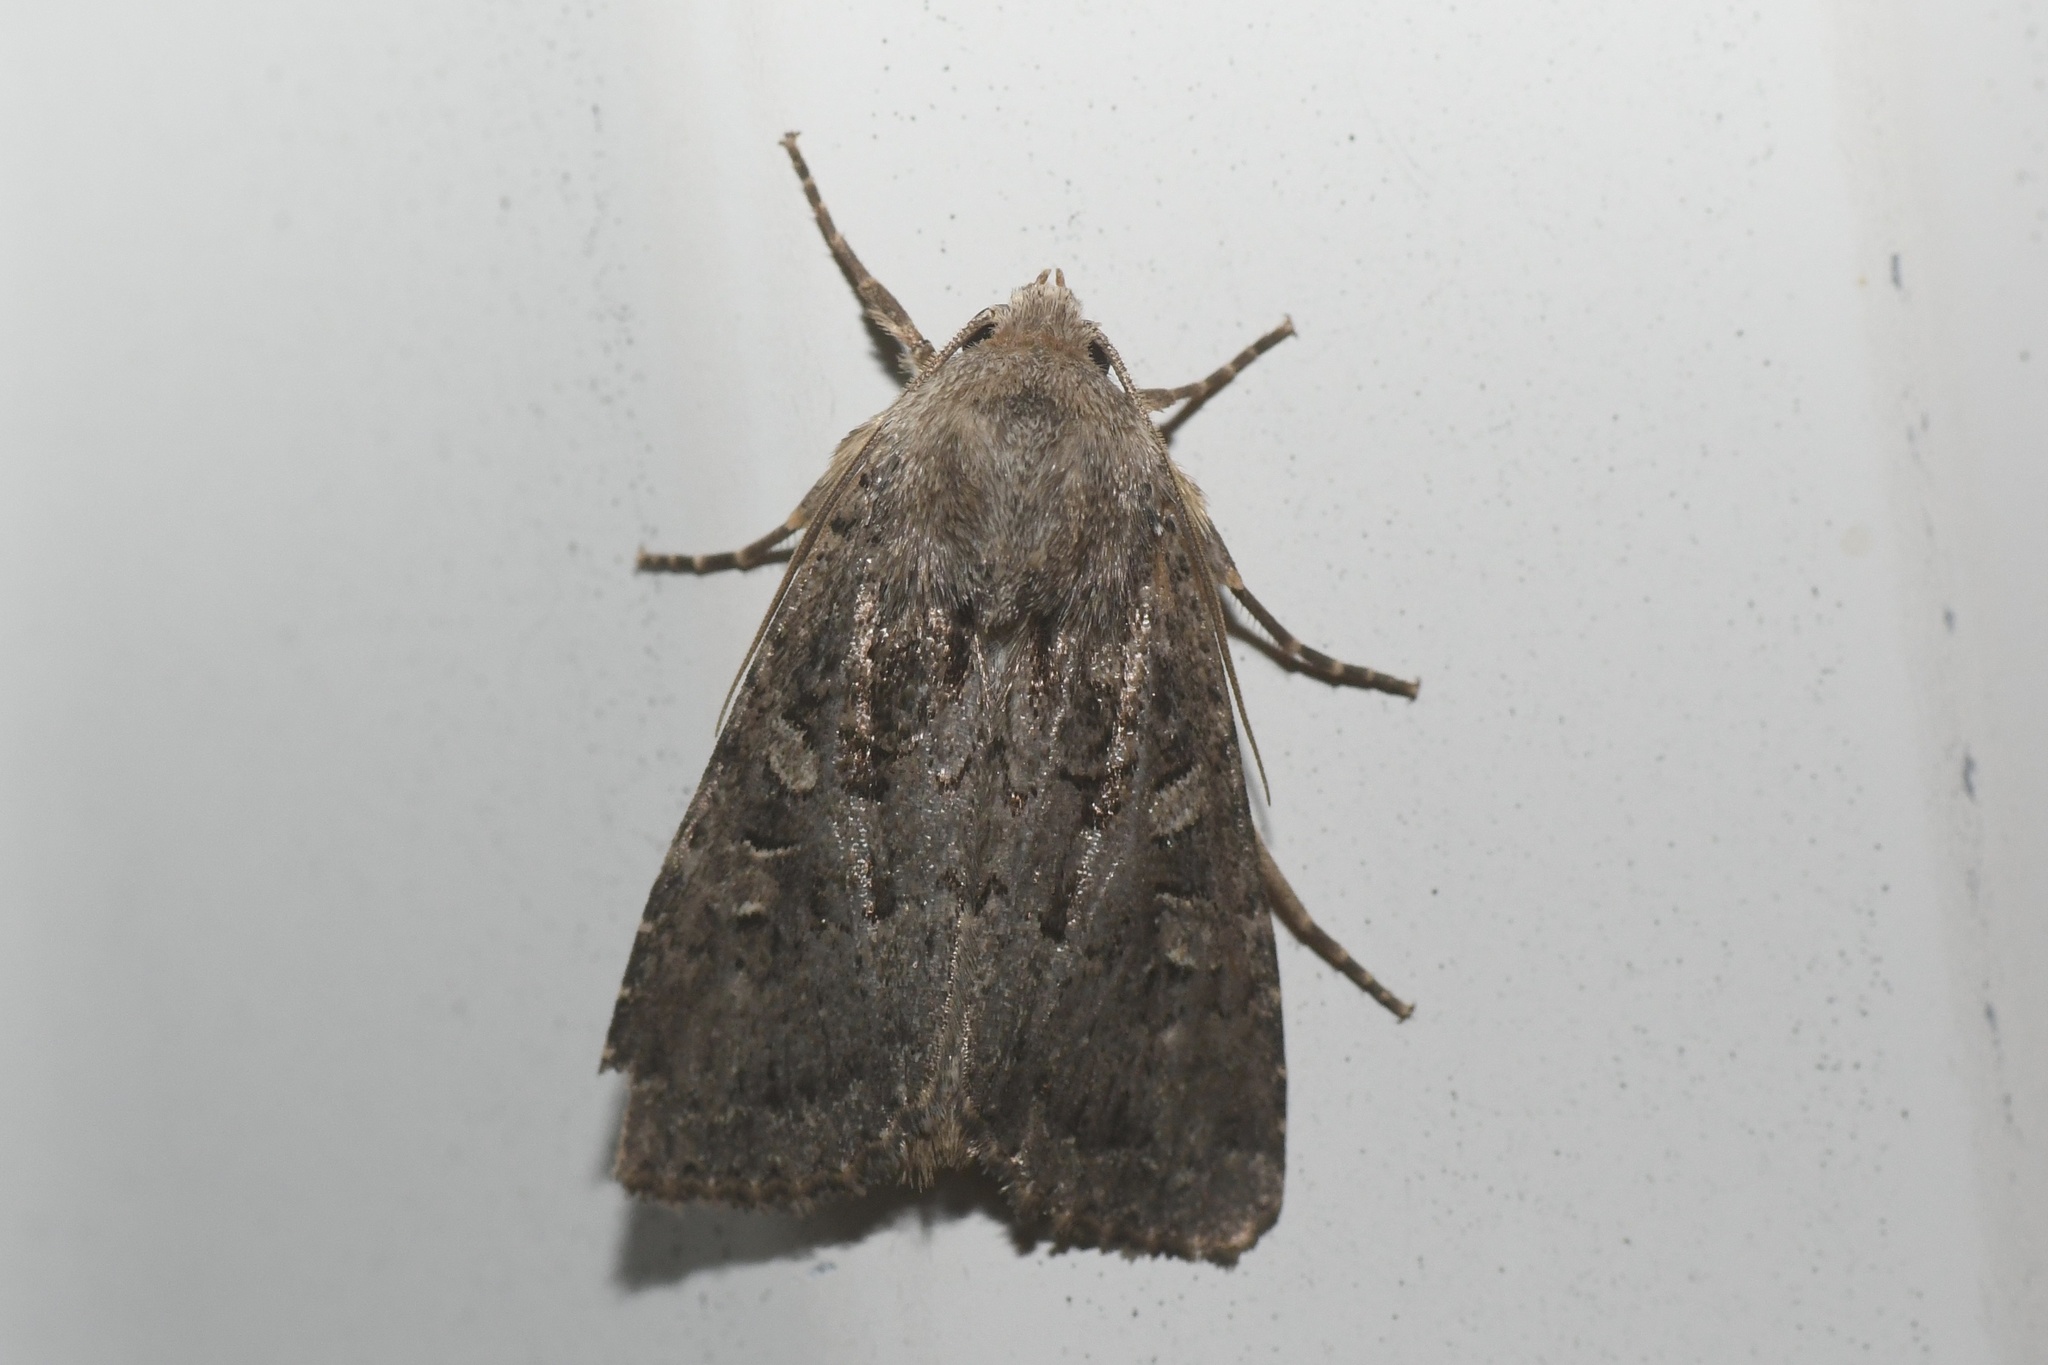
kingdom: Animalia
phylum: Arthropoda
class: Insecta
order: Lepidoptera
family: Noctuidae
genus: Euxoa
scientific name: Euxoa tessellata
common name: Striped cutworm
